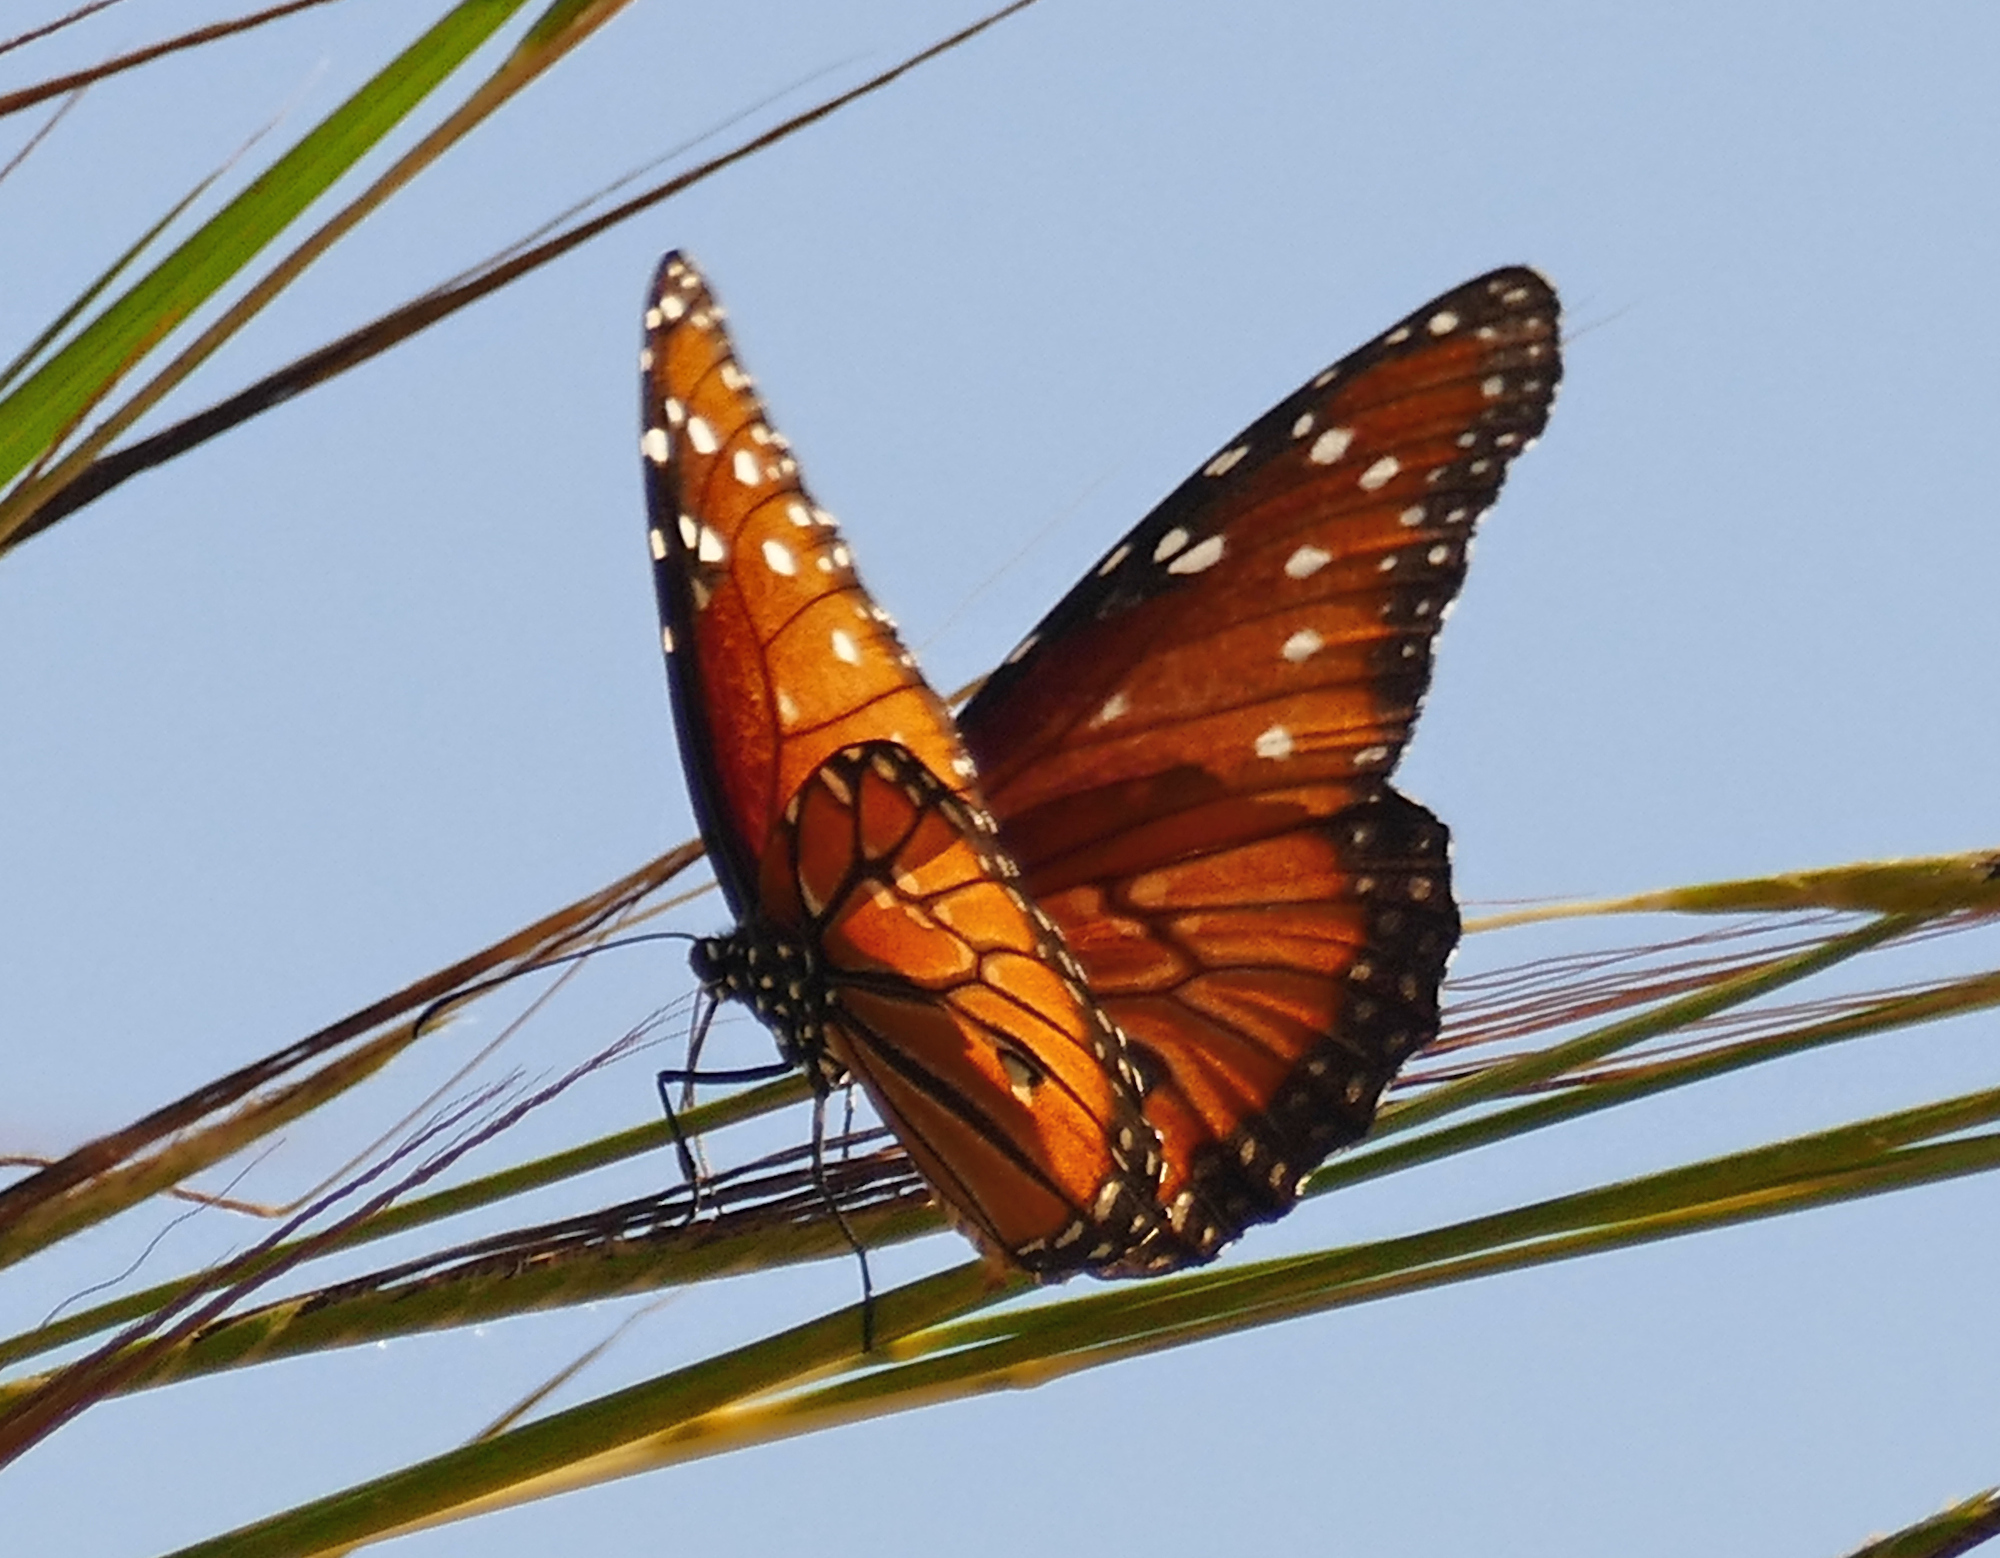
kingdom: Animalia
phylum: Arthropoda
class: Insecta
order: Lepidoptera
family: Nymphalidae
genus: Danaus
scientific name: Danaus gilippus
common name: Queen
